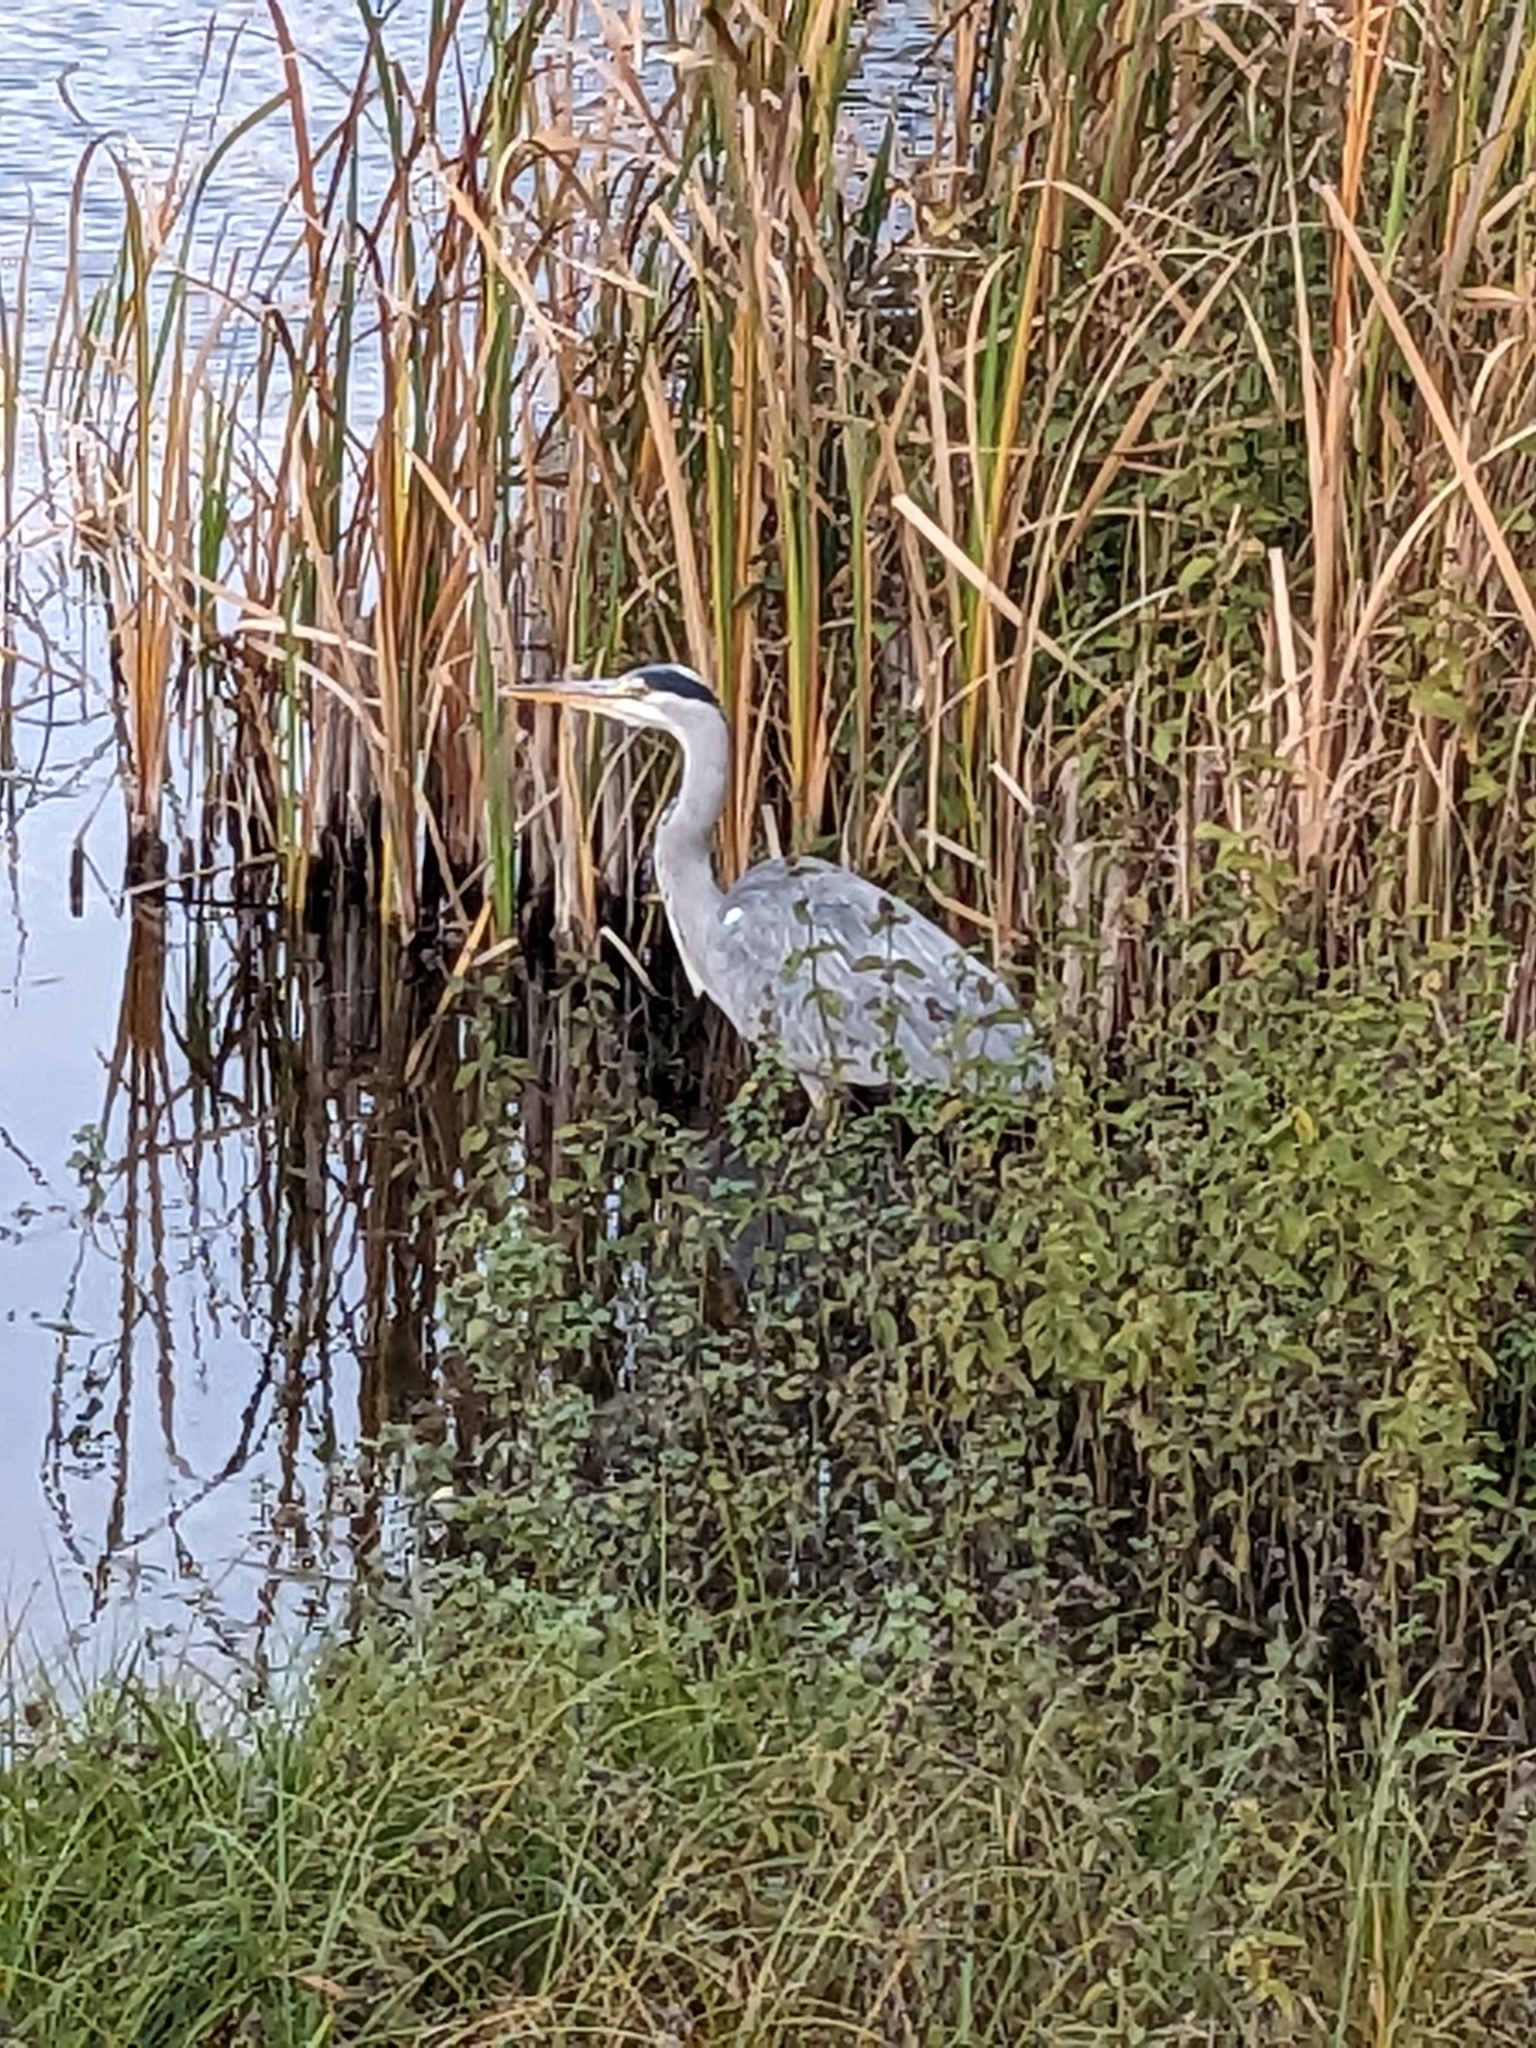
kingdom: Animalia
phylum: Chordata
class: Aves
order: Pelecaniformes
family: Ardeidae
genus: Ardea
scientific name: Ardea cinerea
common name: Grey heron
